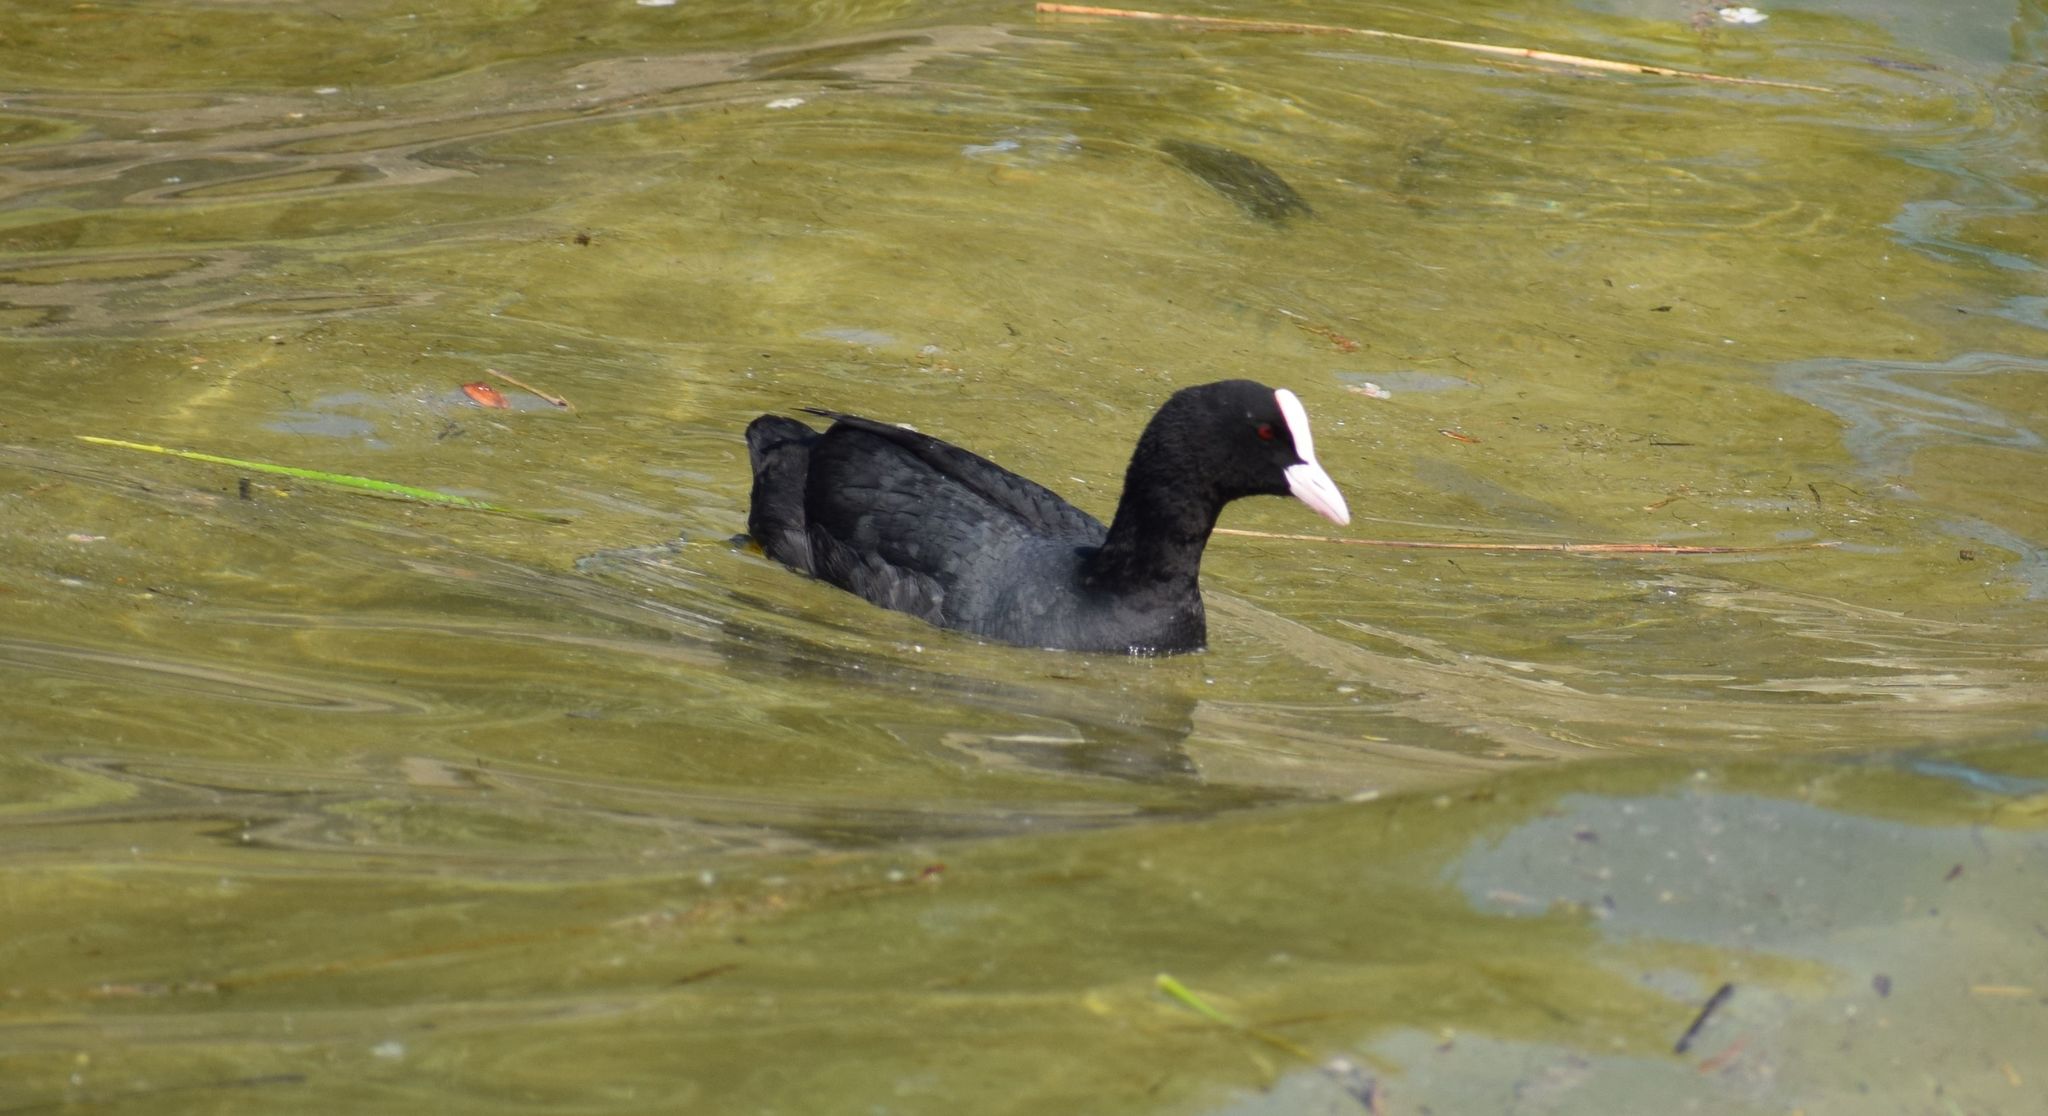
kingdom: Animalia
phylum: Chordata
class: Aves
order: Gruiformes
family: Rallidae
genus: Fulica
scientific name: Fulica atra
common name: Eurasian coot
